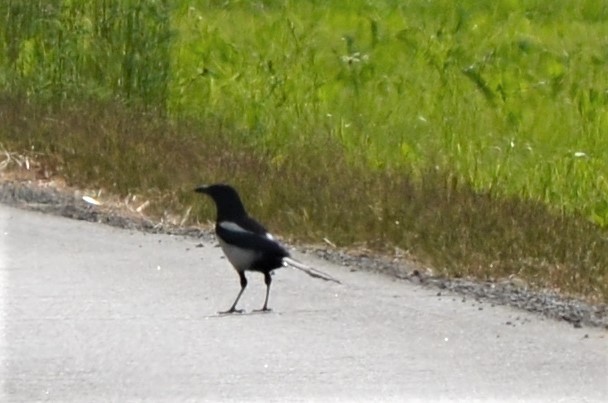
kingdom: Animalia
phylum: Chordata
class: Aves
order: Passeriformes
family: Corvidae
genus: Pica
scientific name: Pica pica
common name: Eurasian magpie
